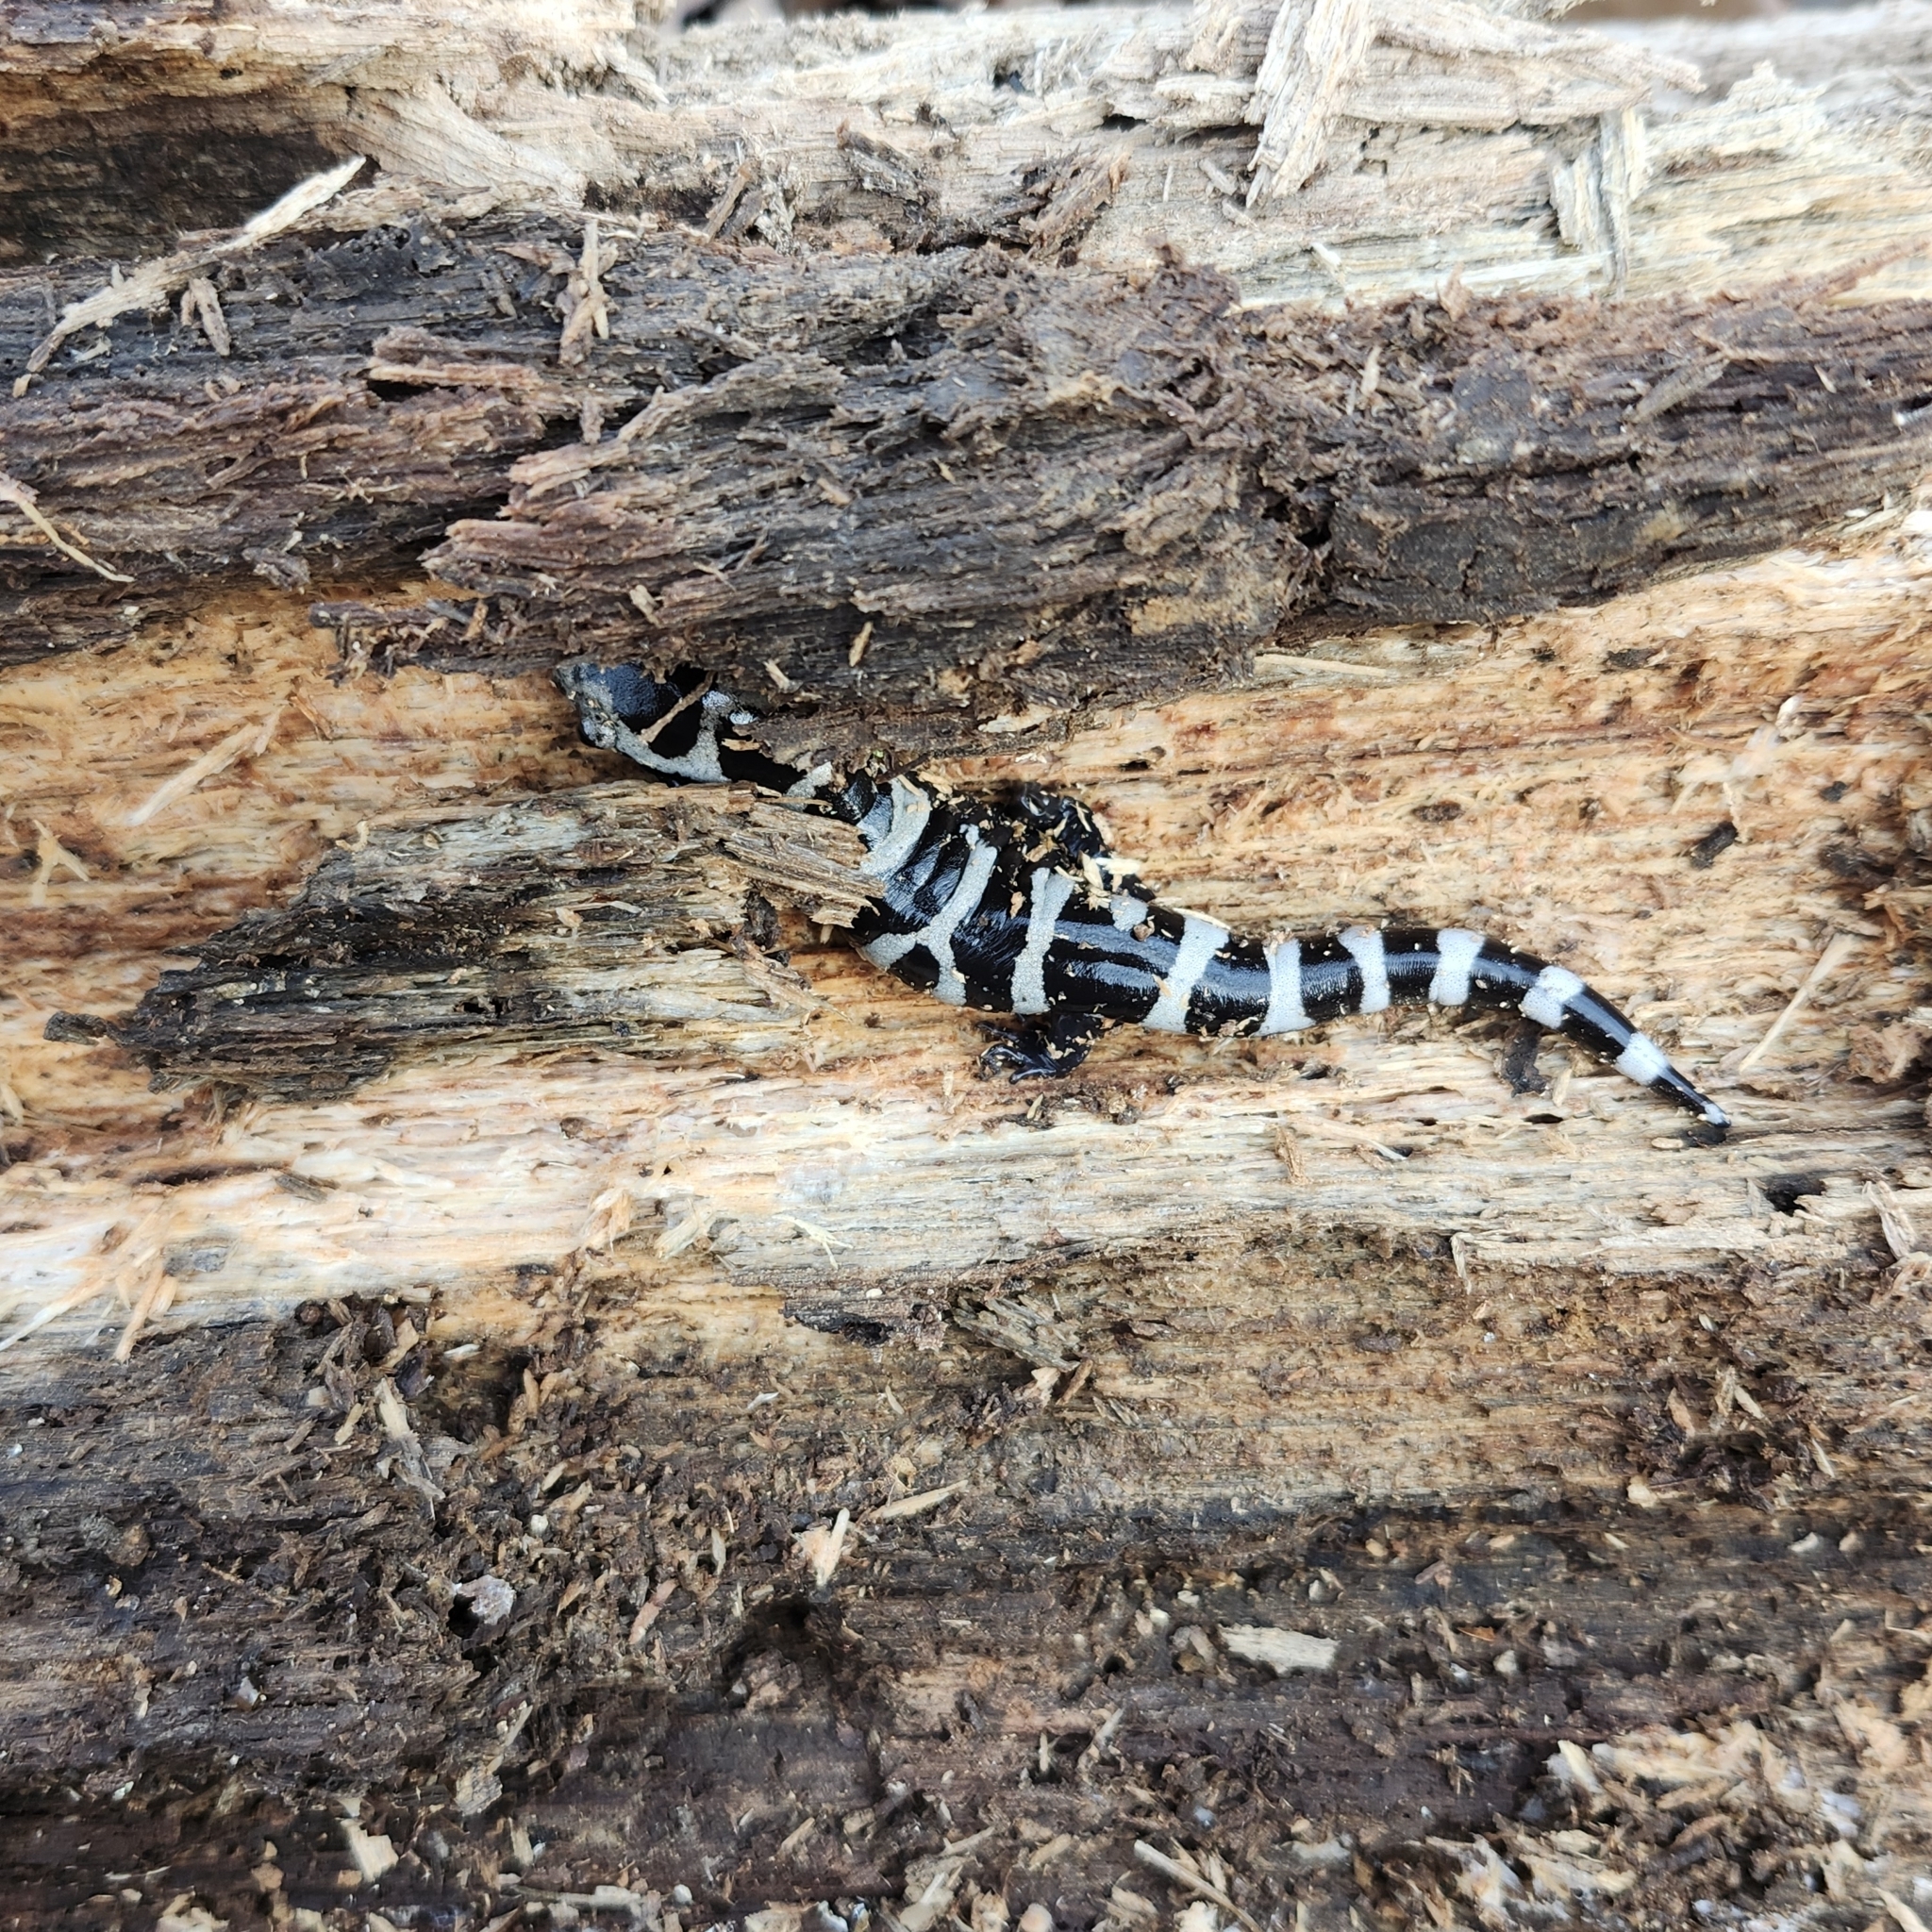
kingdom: Animalia
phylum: Chordata
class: Amphibia
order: Caudata
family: Ambystomatidae
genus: Ambystoma
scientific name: Ambystoma opacum
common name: Marbled salamander
